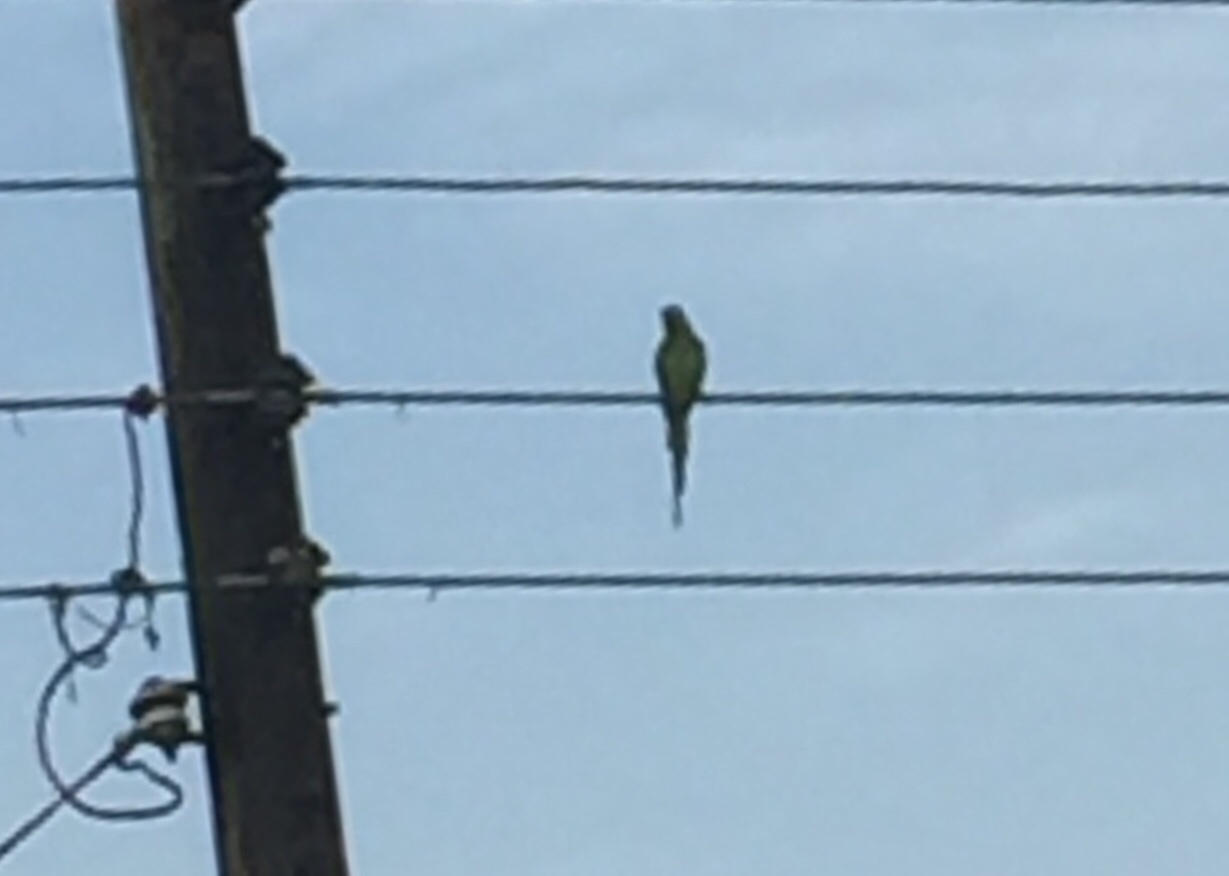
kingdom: Animalia
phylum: Chordata
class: Aves
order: Psittaciformes
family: Psittacidae
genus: Psittacula
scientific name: Psittacula krameri
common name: Rose-ringed parakeet
